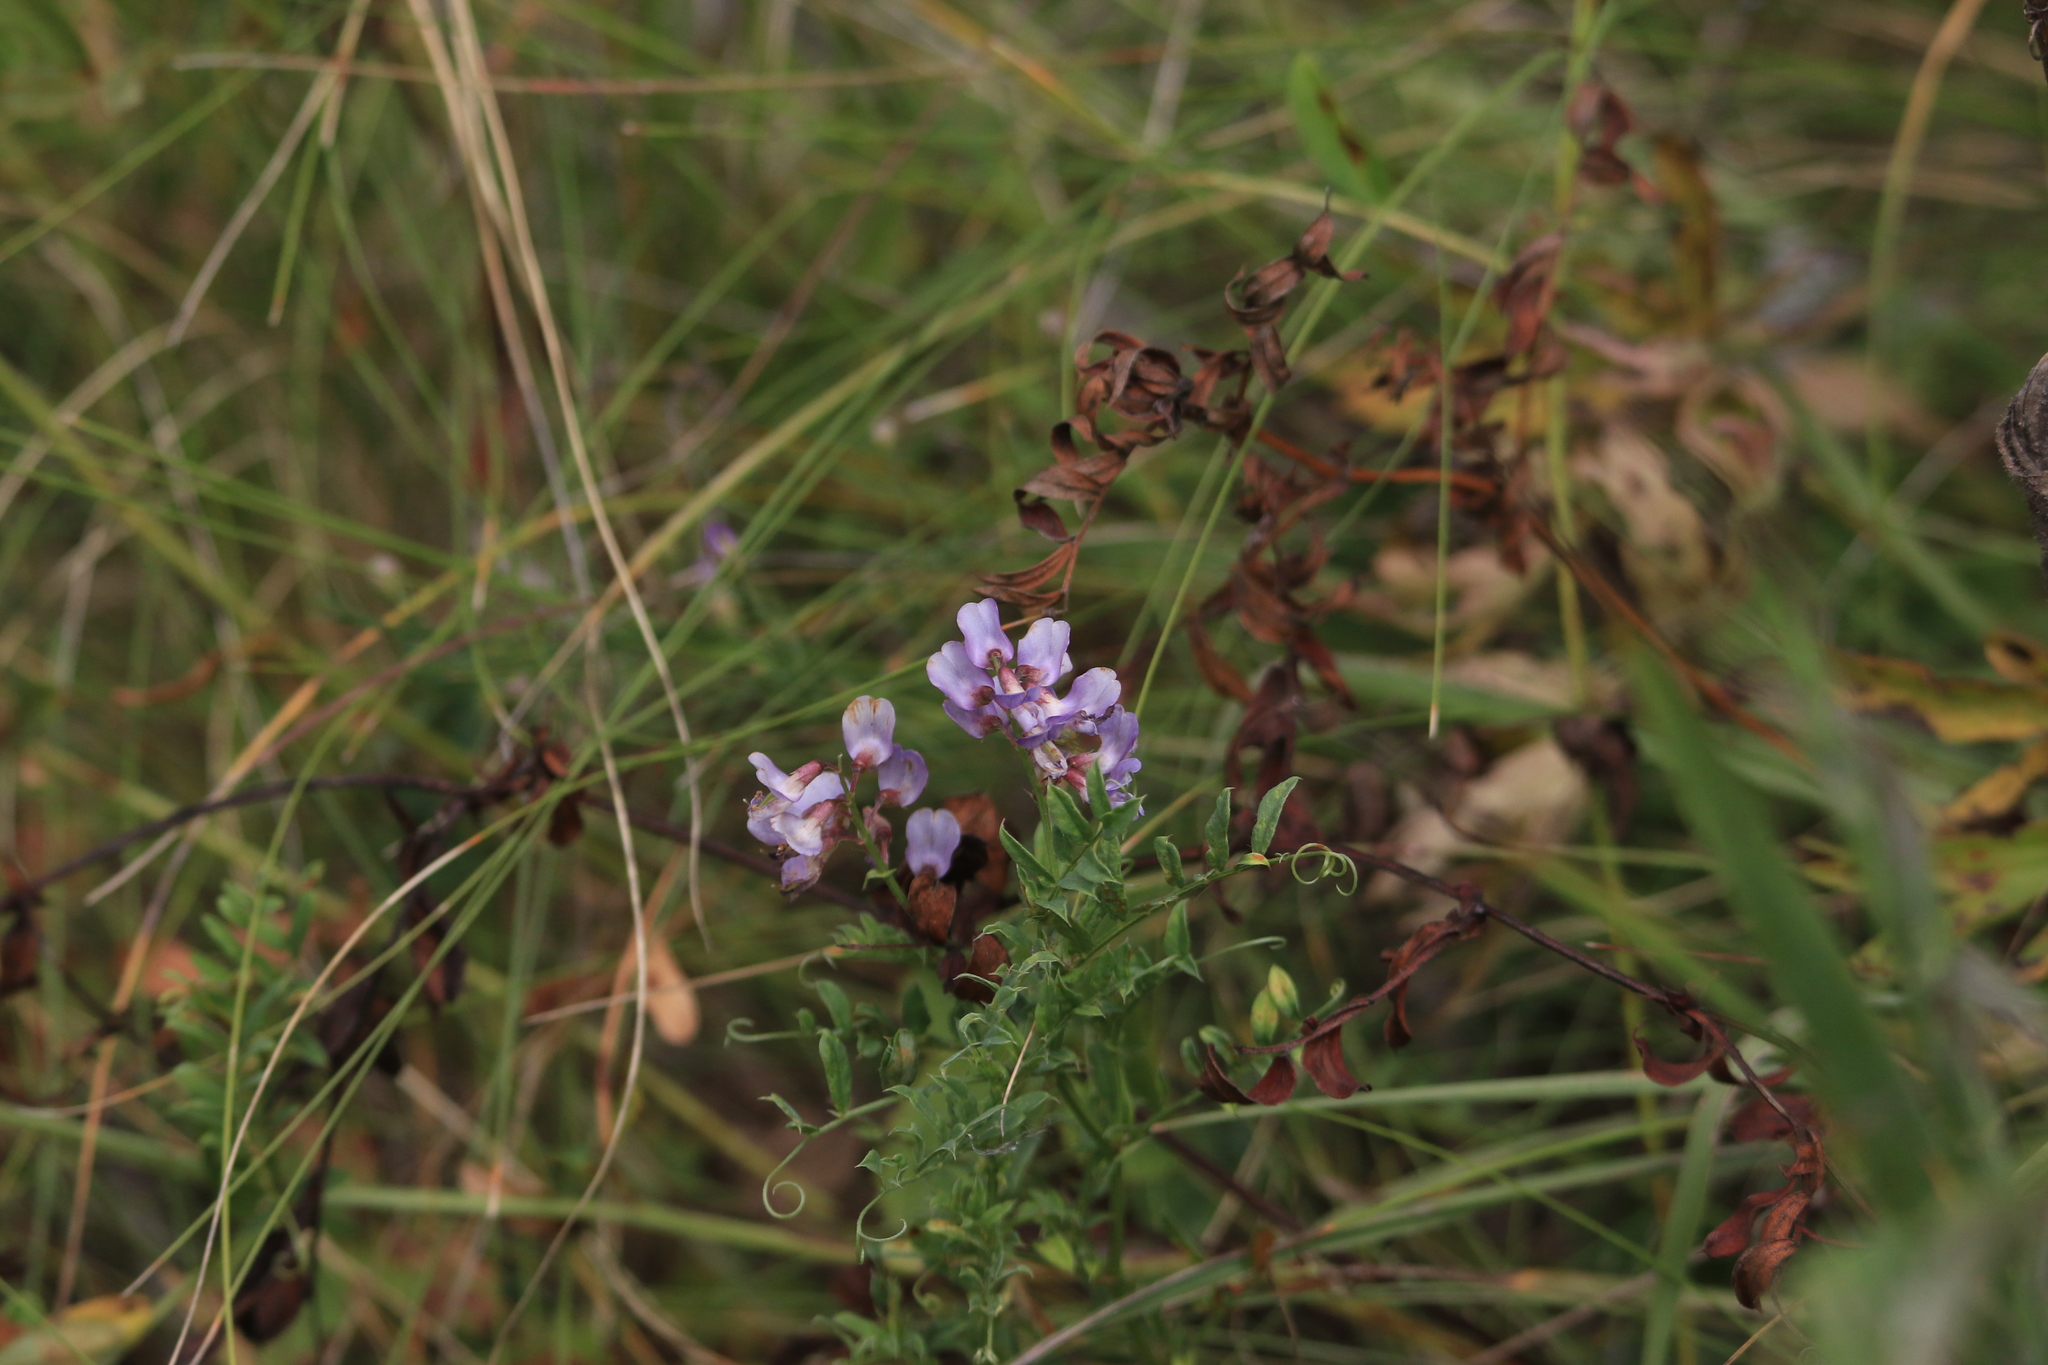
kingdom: Plantae
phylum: Tracheophyta
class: Magnoliopsida
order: Fabales
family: Fabaceae
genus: Vicia
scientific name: Vicia amoena
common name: Cheder ebs
